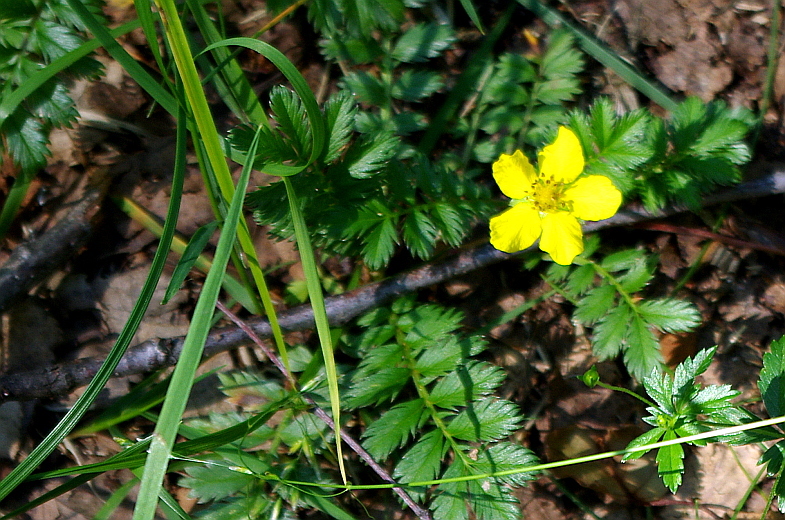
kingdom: Plantae
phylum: Tracheophyta
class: Magnoliopsida
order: Rosales
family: Rosaceae
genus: Argentina
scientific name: Argentina anserina
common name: Common silverweed
